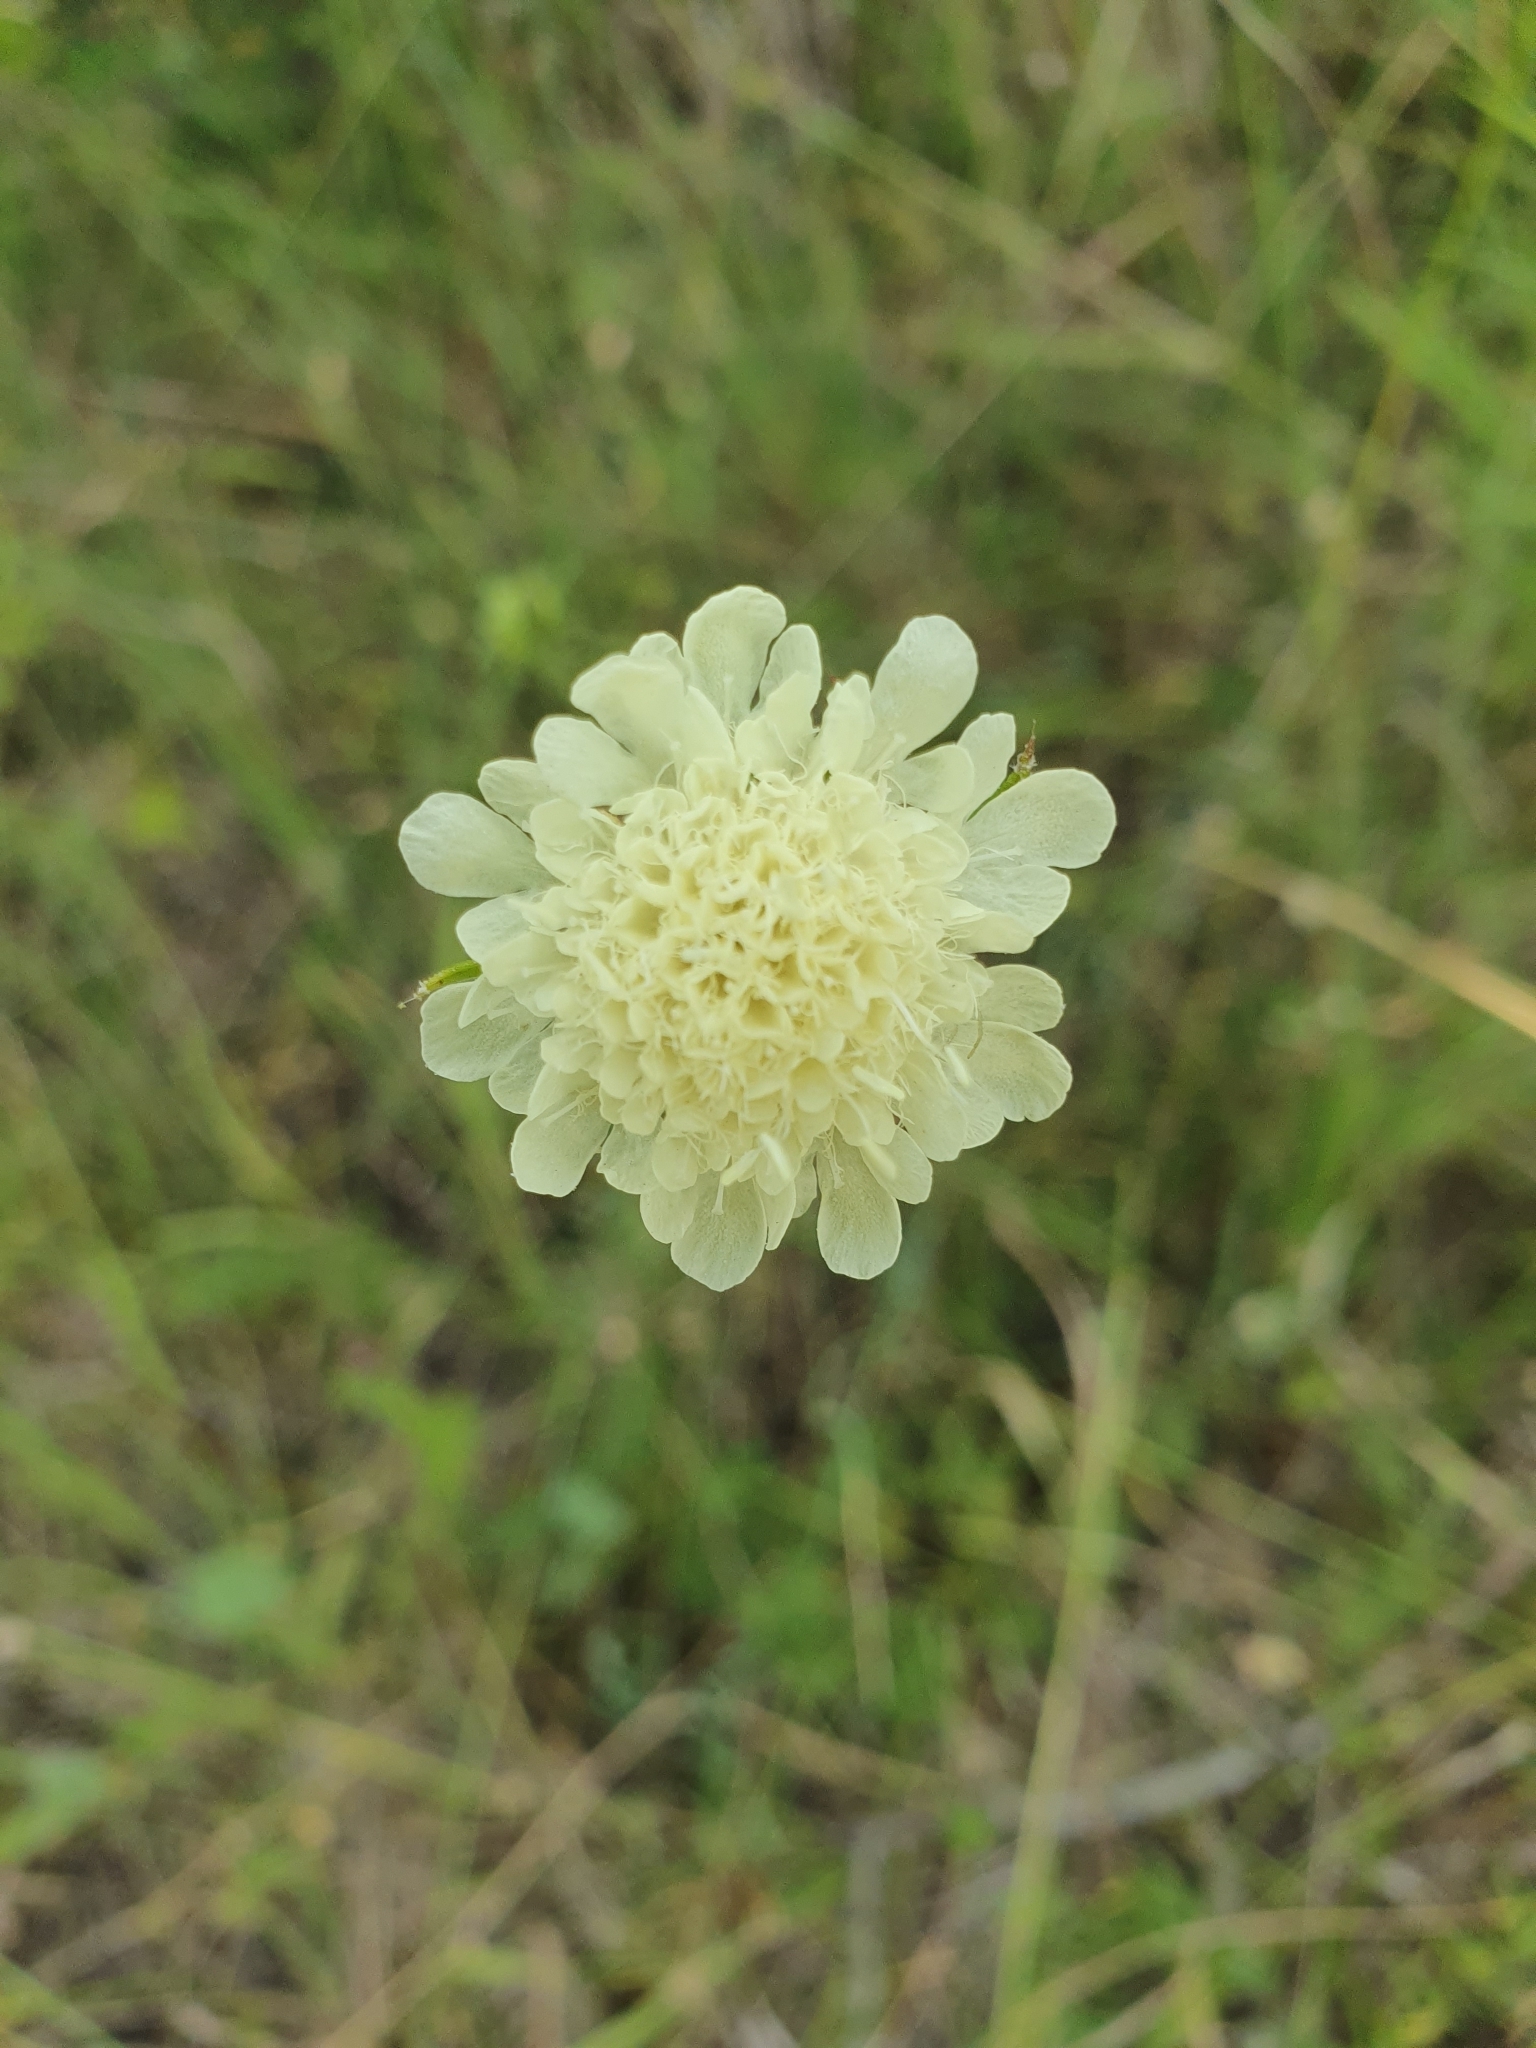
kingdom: Plantae
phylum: Tracheophyta
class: Magnoliopsida
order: Dipsacales
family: Caprifoliaceae
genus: Scabiosa
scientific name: Scabiosa ochroleuca
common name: Cream pincushions
